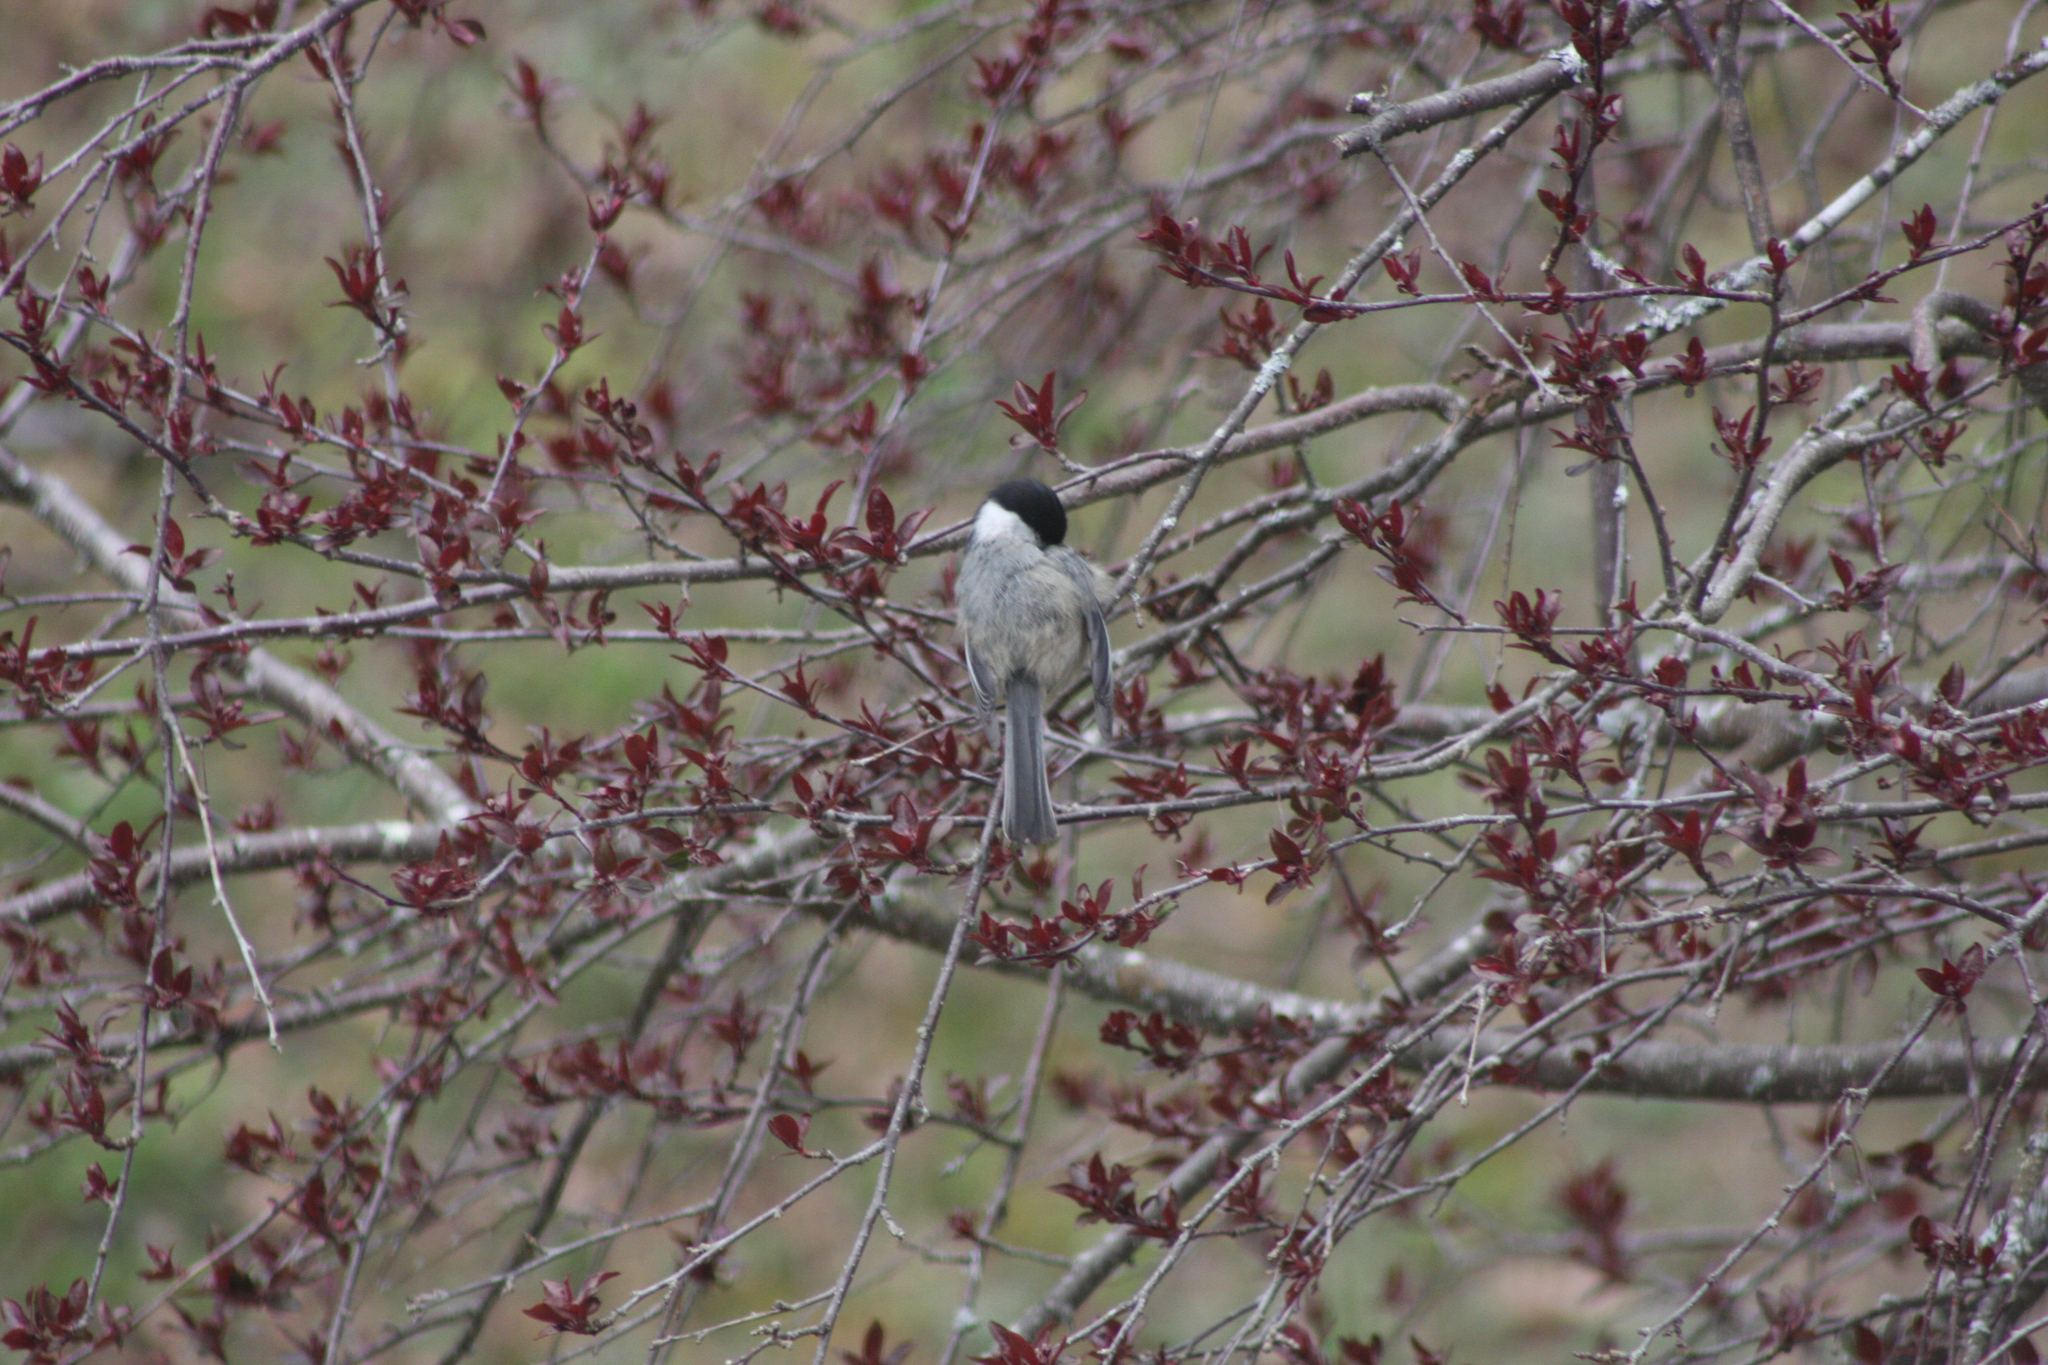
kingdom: Animalia
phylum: Chordata
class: Aves
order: Passeriformes
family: Paridae
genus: Poecile
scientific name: Poecile atricapillus
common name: Black-capped chickadee
